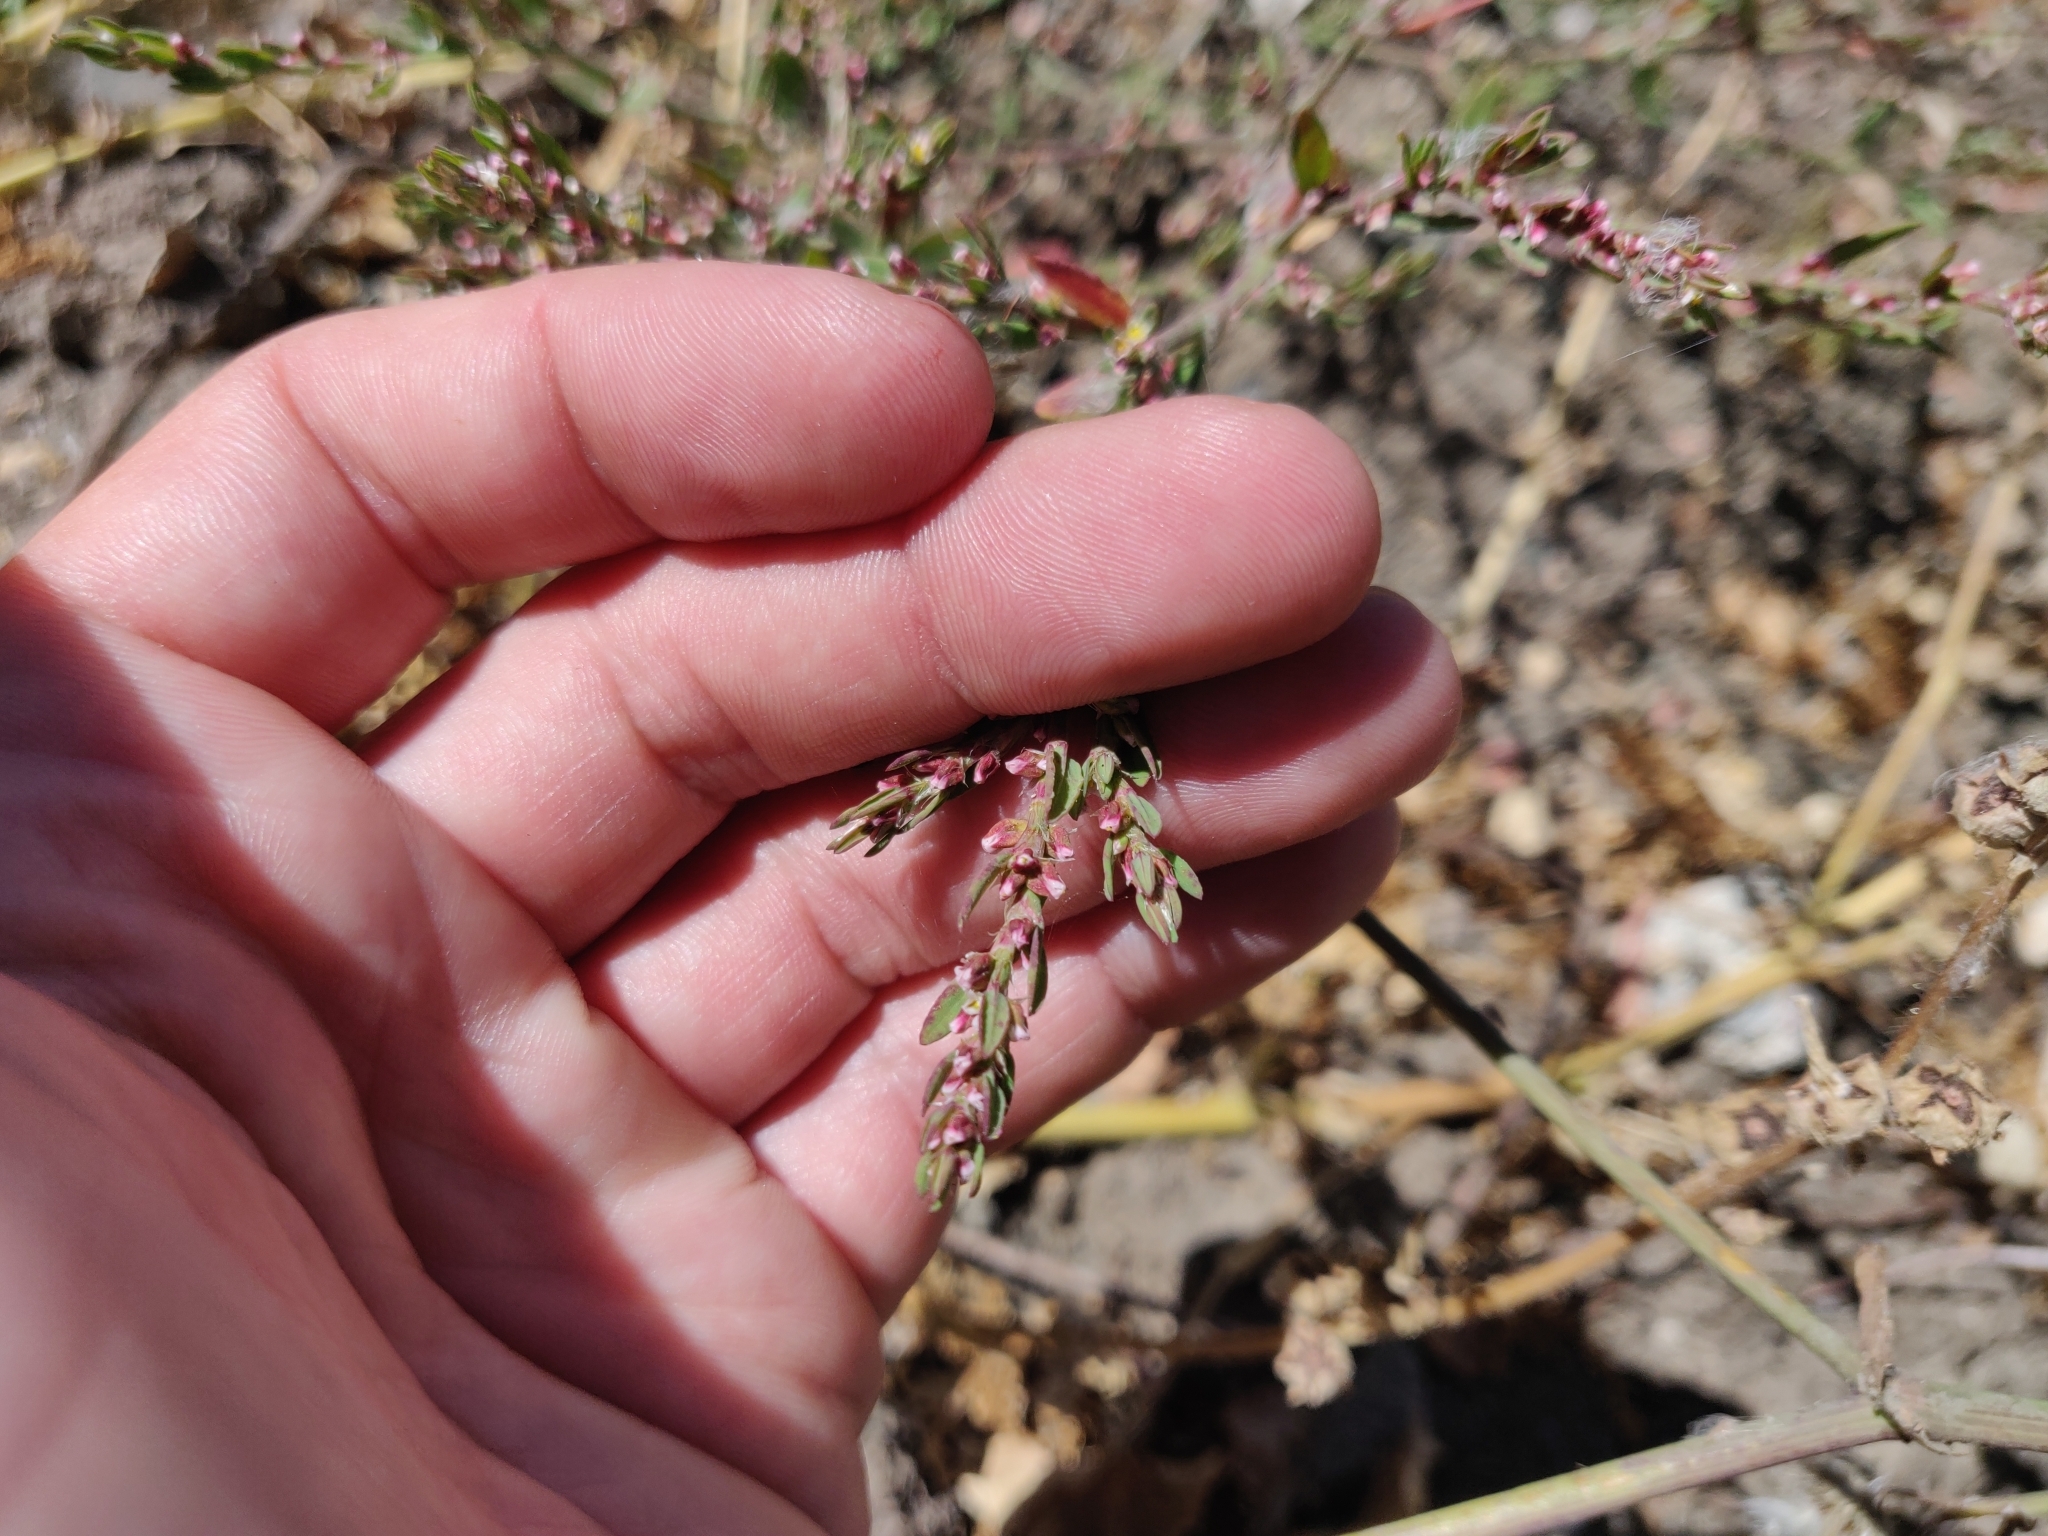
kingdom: Plantae
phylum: Tracheophyta
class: Magnoliopsida
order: Caryophyllales
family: Polygonaceae
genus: Polygonum
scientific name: Polygonum aviculare
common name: Prostrate knotweed
